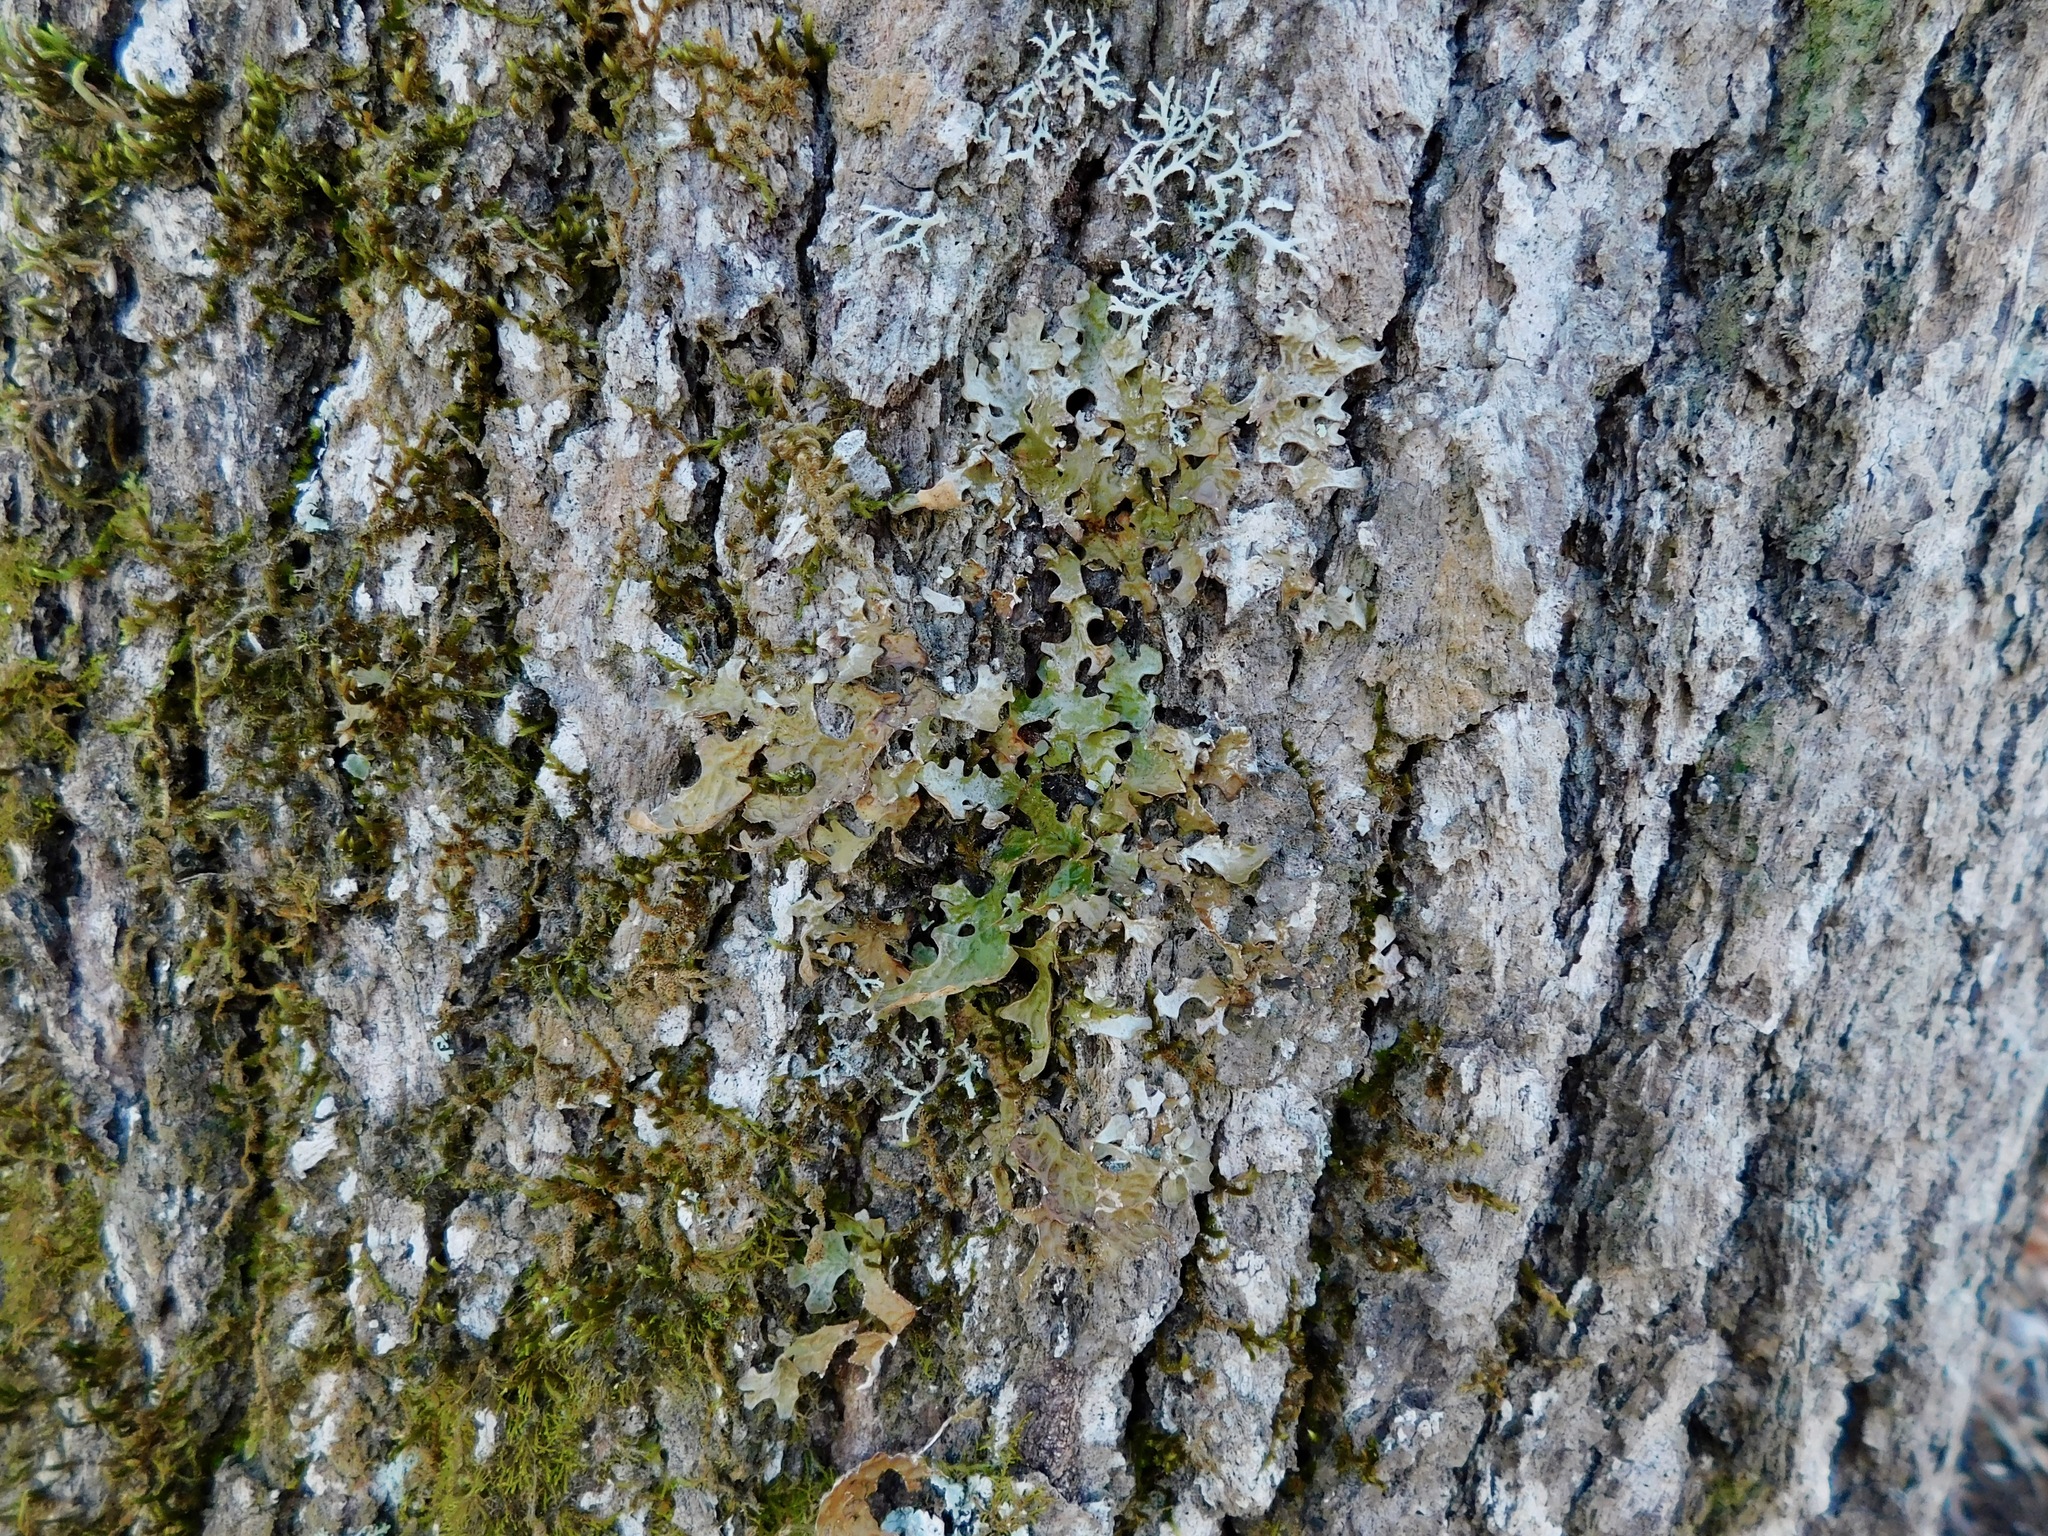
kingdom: Fungi
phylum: Ascomycota
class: Lecanoromycetes
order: Peltigerales
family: Lobariaceae
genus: Lobaria
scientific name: Lobaria pulmonaria
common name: Lungwort
